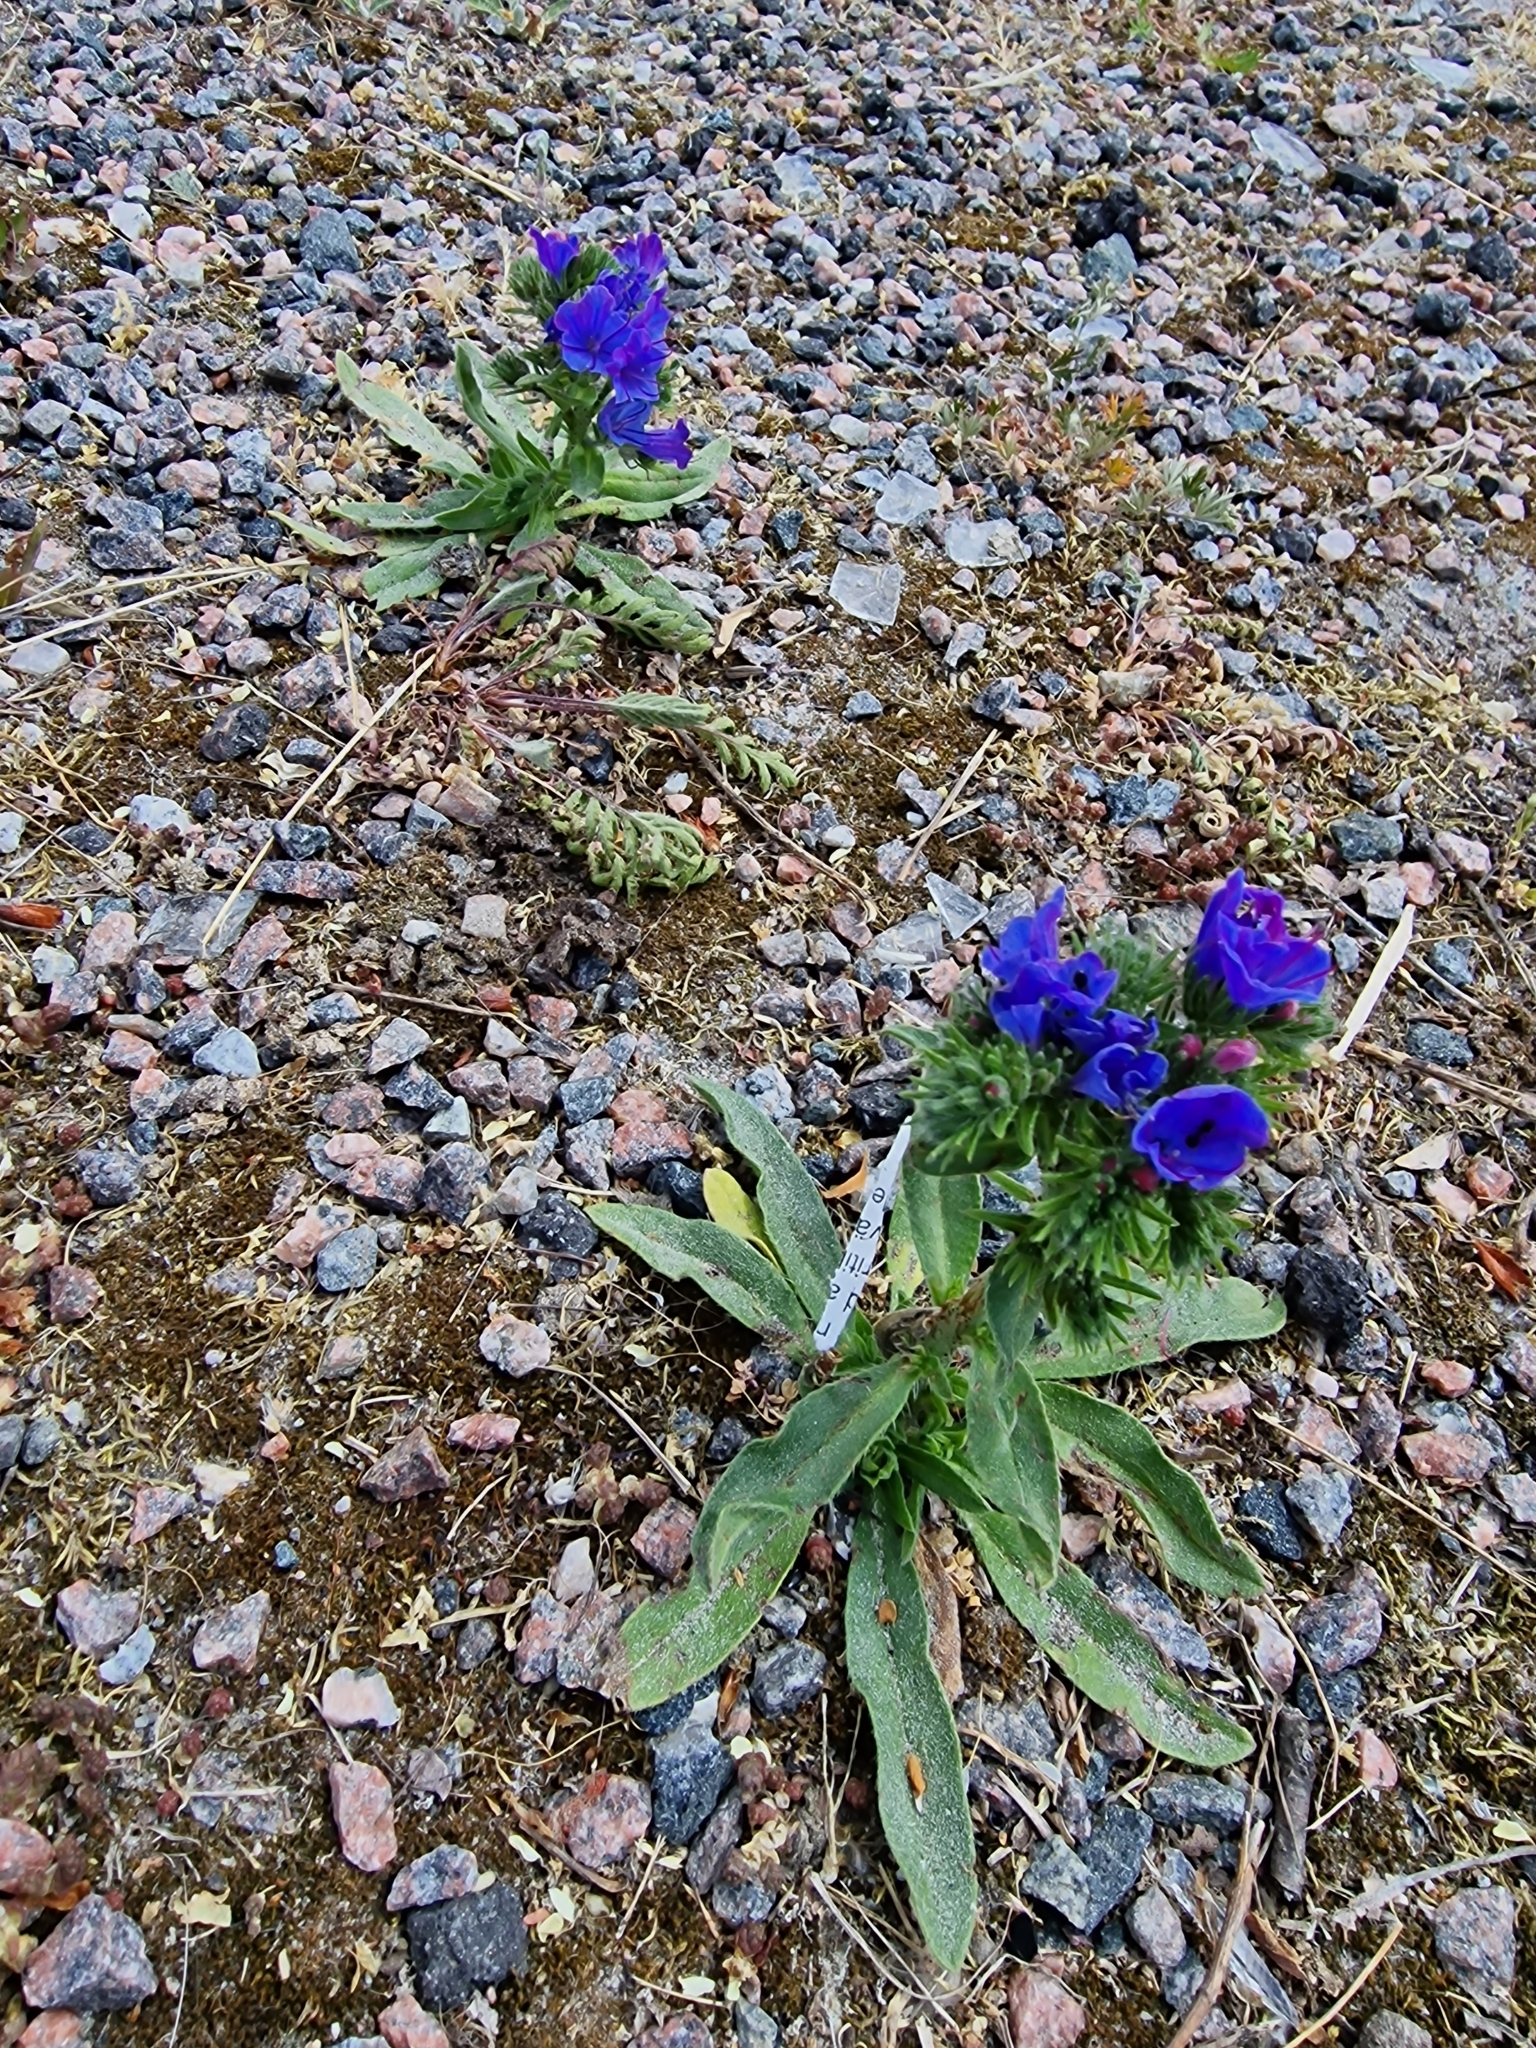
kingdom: Plantae
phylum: Tracheophyta
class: Magnoliopsida
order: Boraginales
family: Boraginaceae
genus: Echium
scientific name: Echium vulgare
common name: Common viper's bugloss
